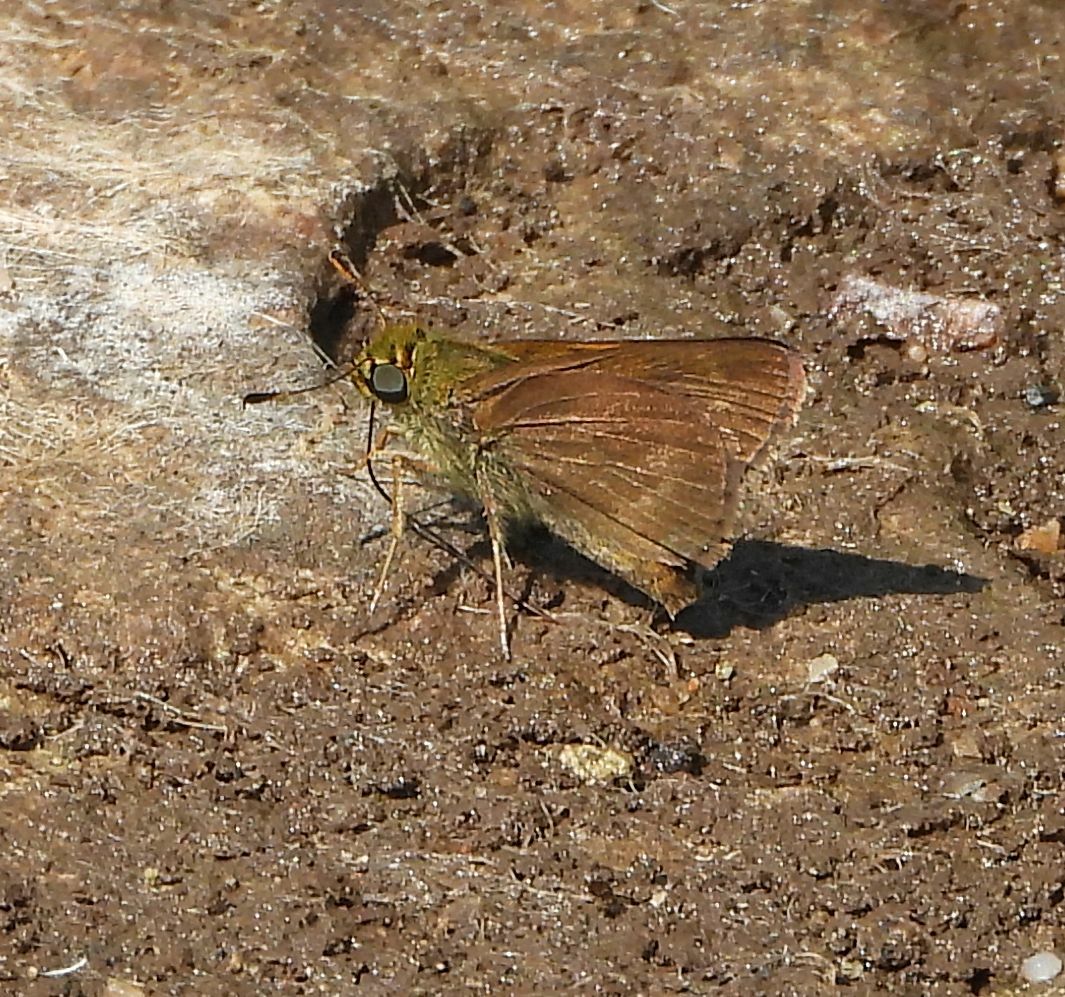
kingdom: Animalia
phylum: Arthropoda
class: Insecta
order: Lepidoptera
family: Hesperiidae
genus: Euphyes
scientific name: Euphyes vestris
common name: Dun skipper
